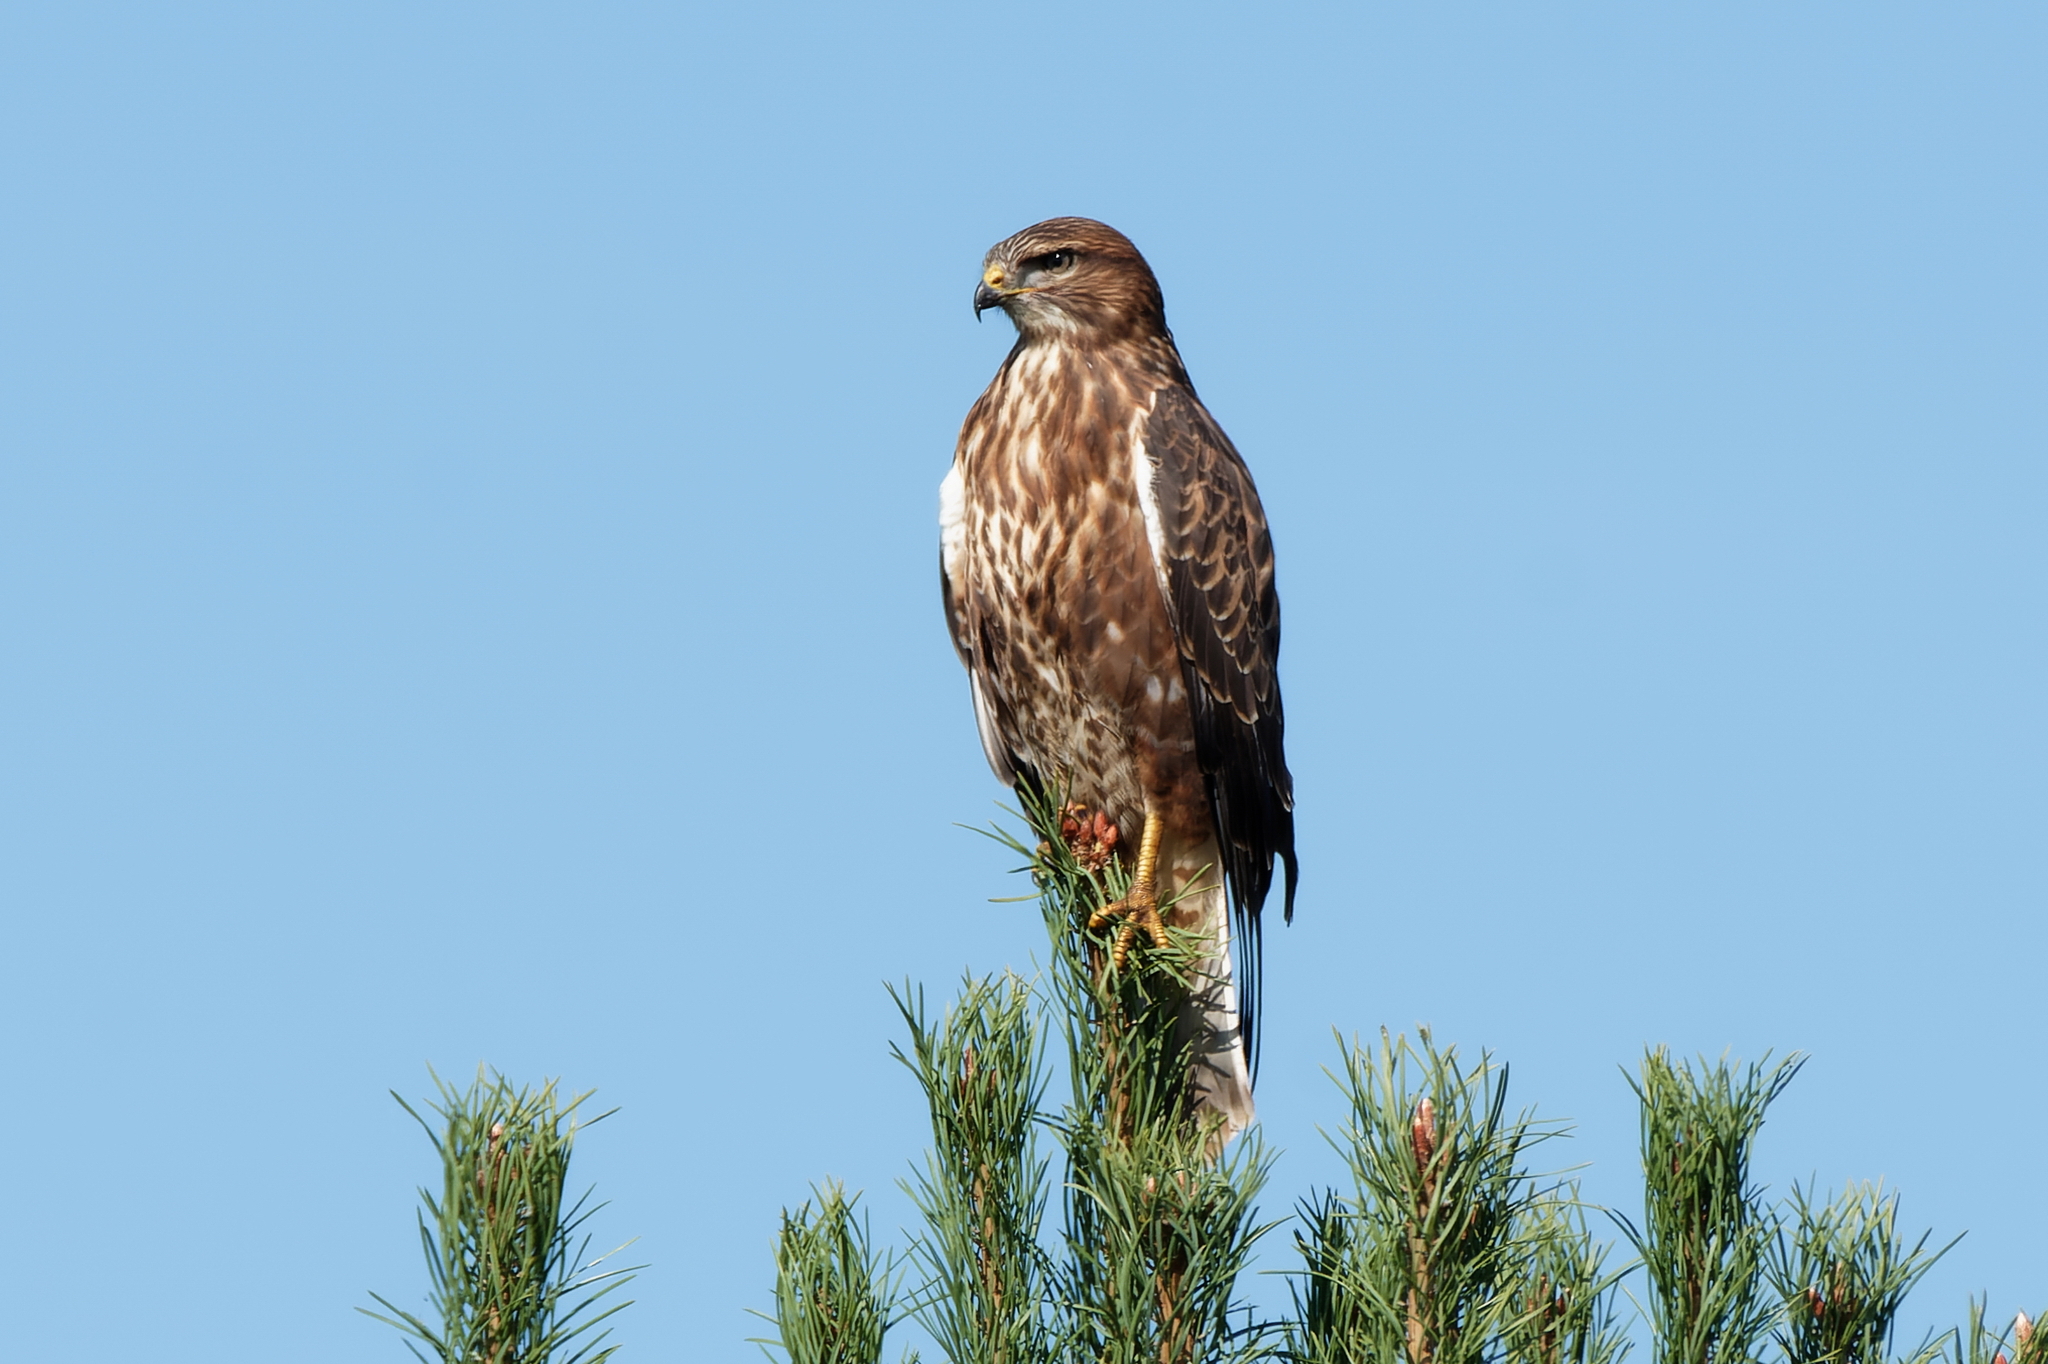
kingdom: Animalia
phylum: Chordata
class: Aves
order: Accipitriformes
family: Accipitridae
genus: Buteo
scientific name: Buteo buteo
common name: Common buzzard
